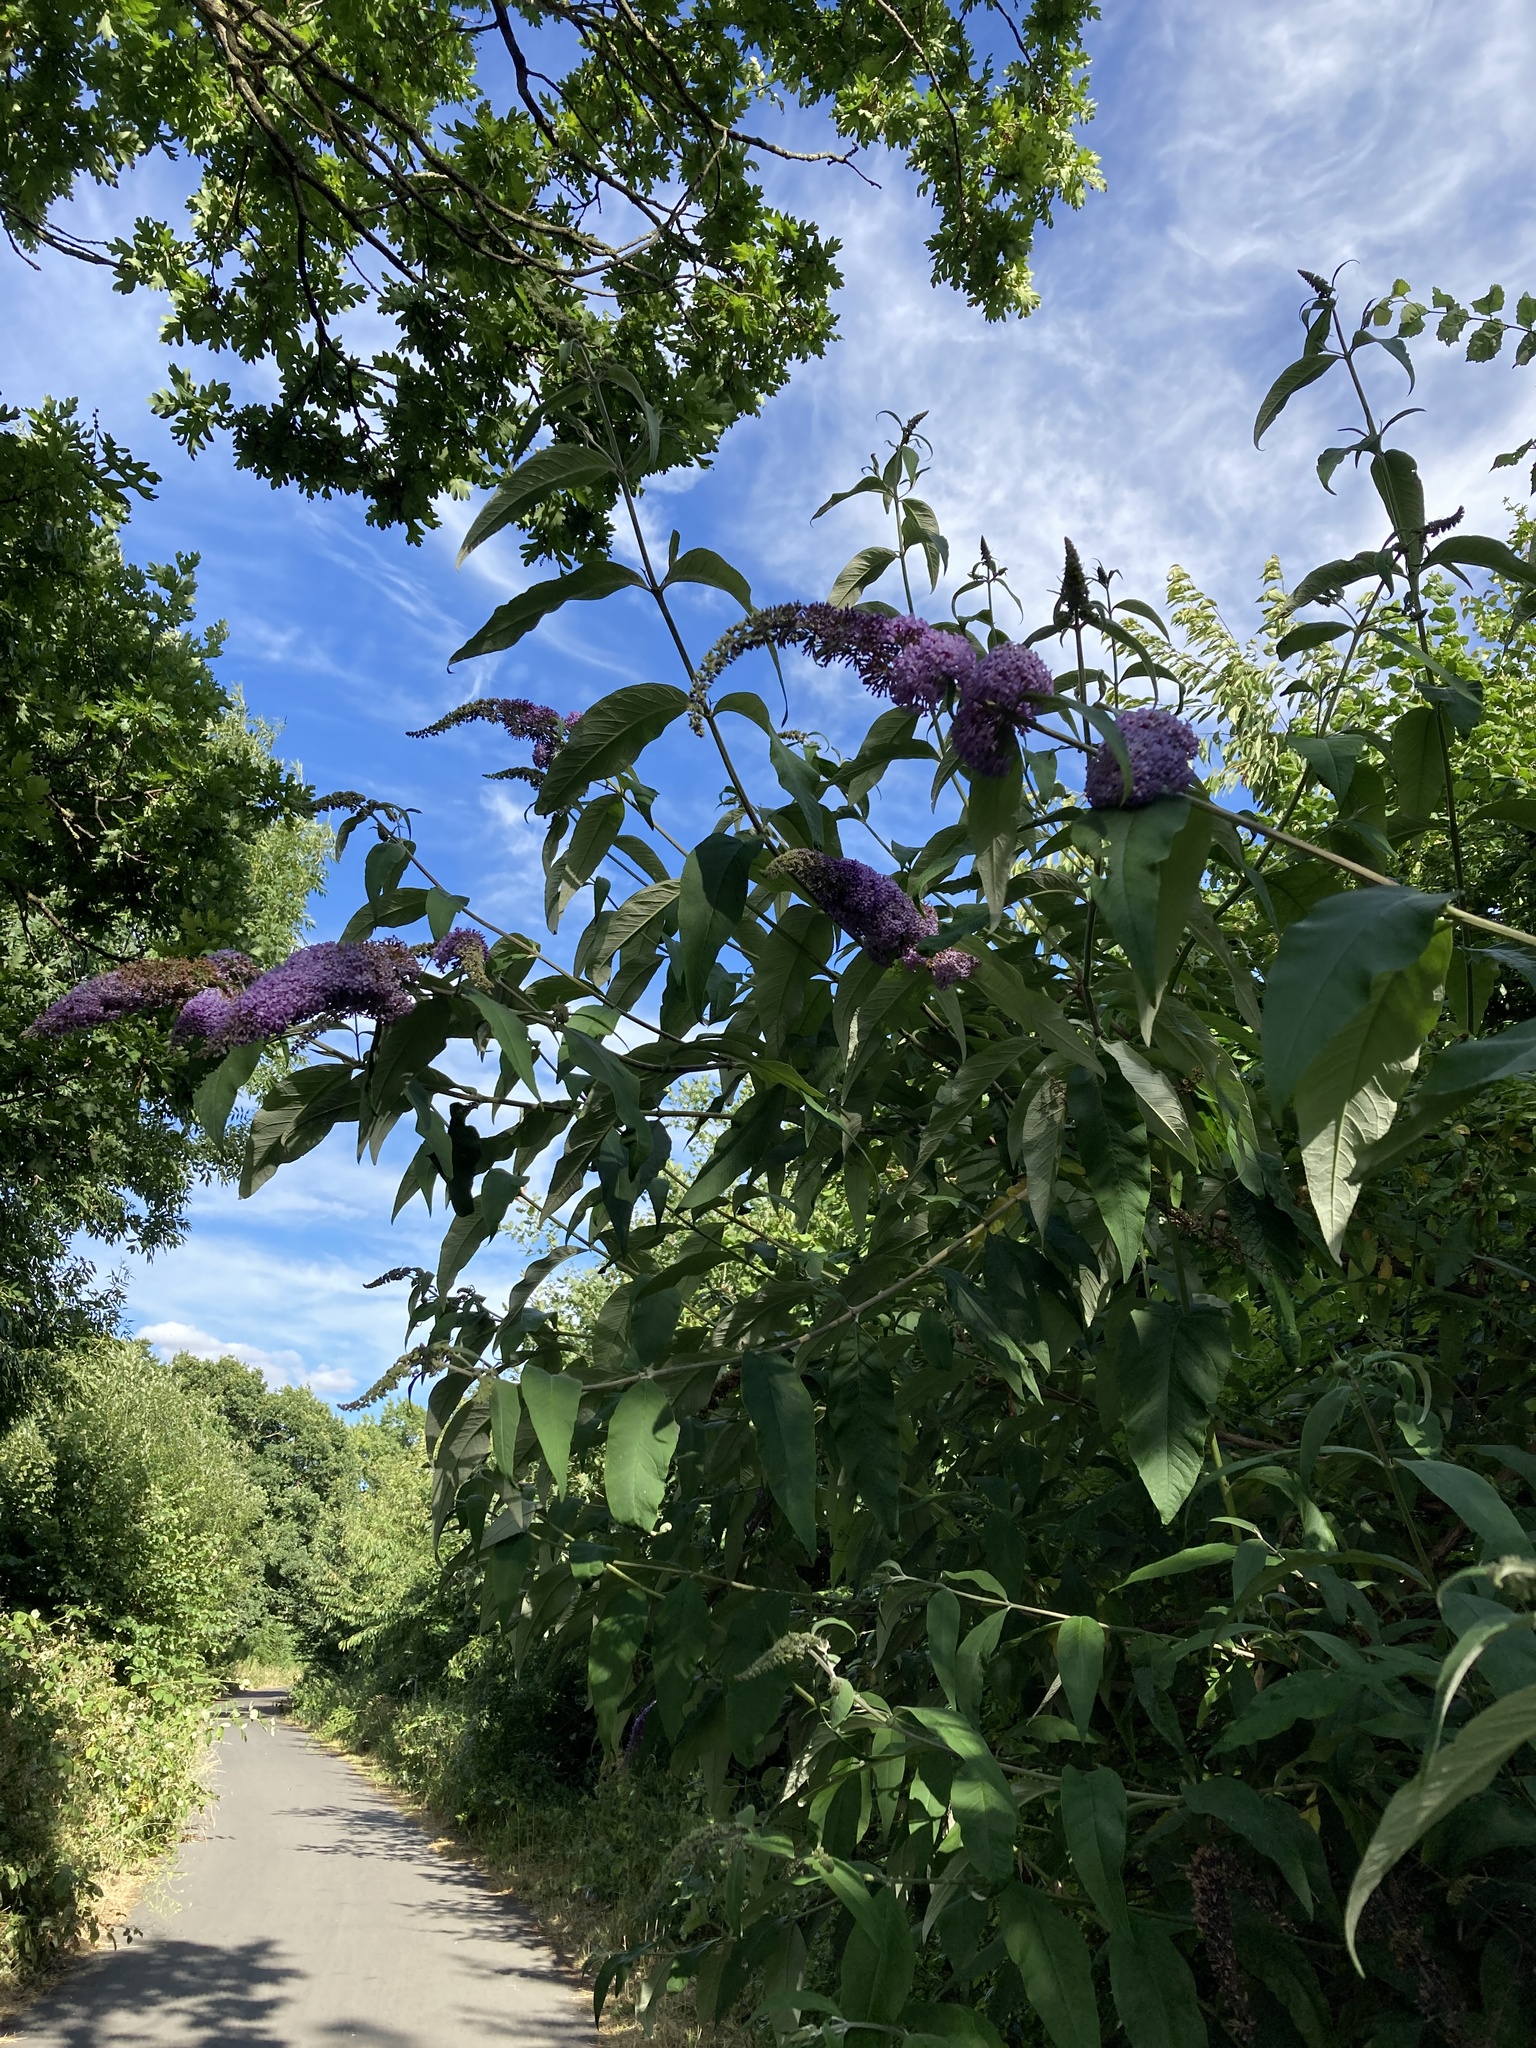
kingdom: Plantae
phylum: Tracheophyta
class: Magnoliopsida
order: Lamiales
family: Scrophulariaceae
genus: Buddleja
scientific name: Buddleja davidii
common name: Butterfly-bush
